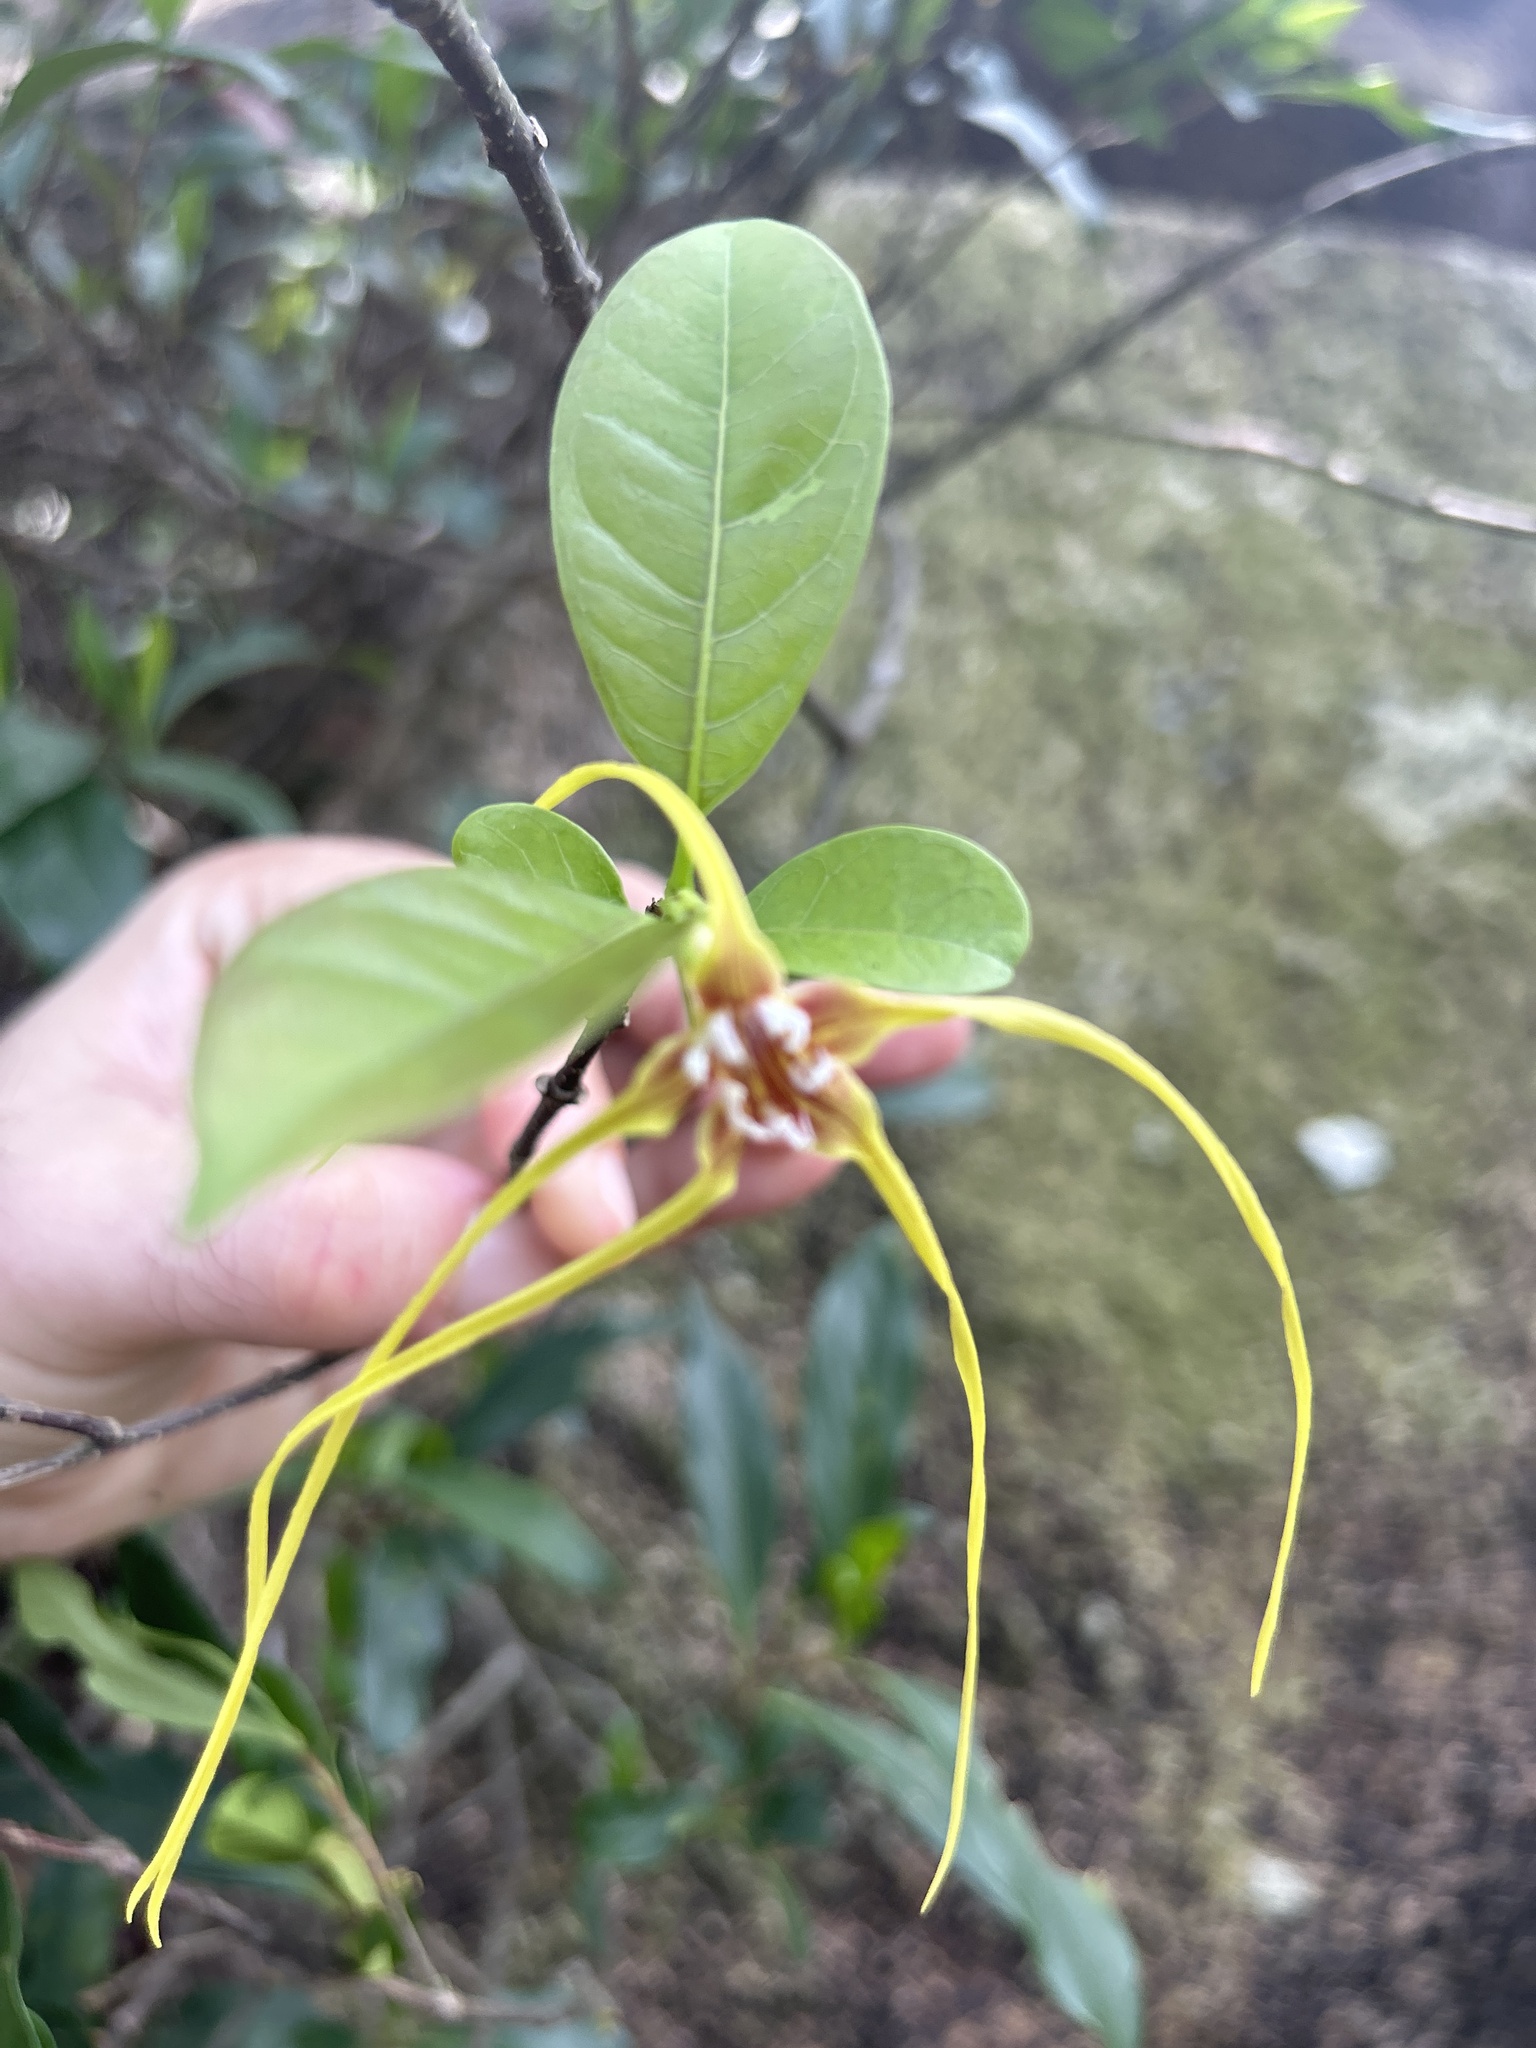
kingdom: Plantae
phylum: Tracheophyta
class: Magnoliopsida
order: Gentianales
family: Apocynaceae
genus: Strophanthus
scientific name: Strophanthus divaricatus
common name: Goat-horns
